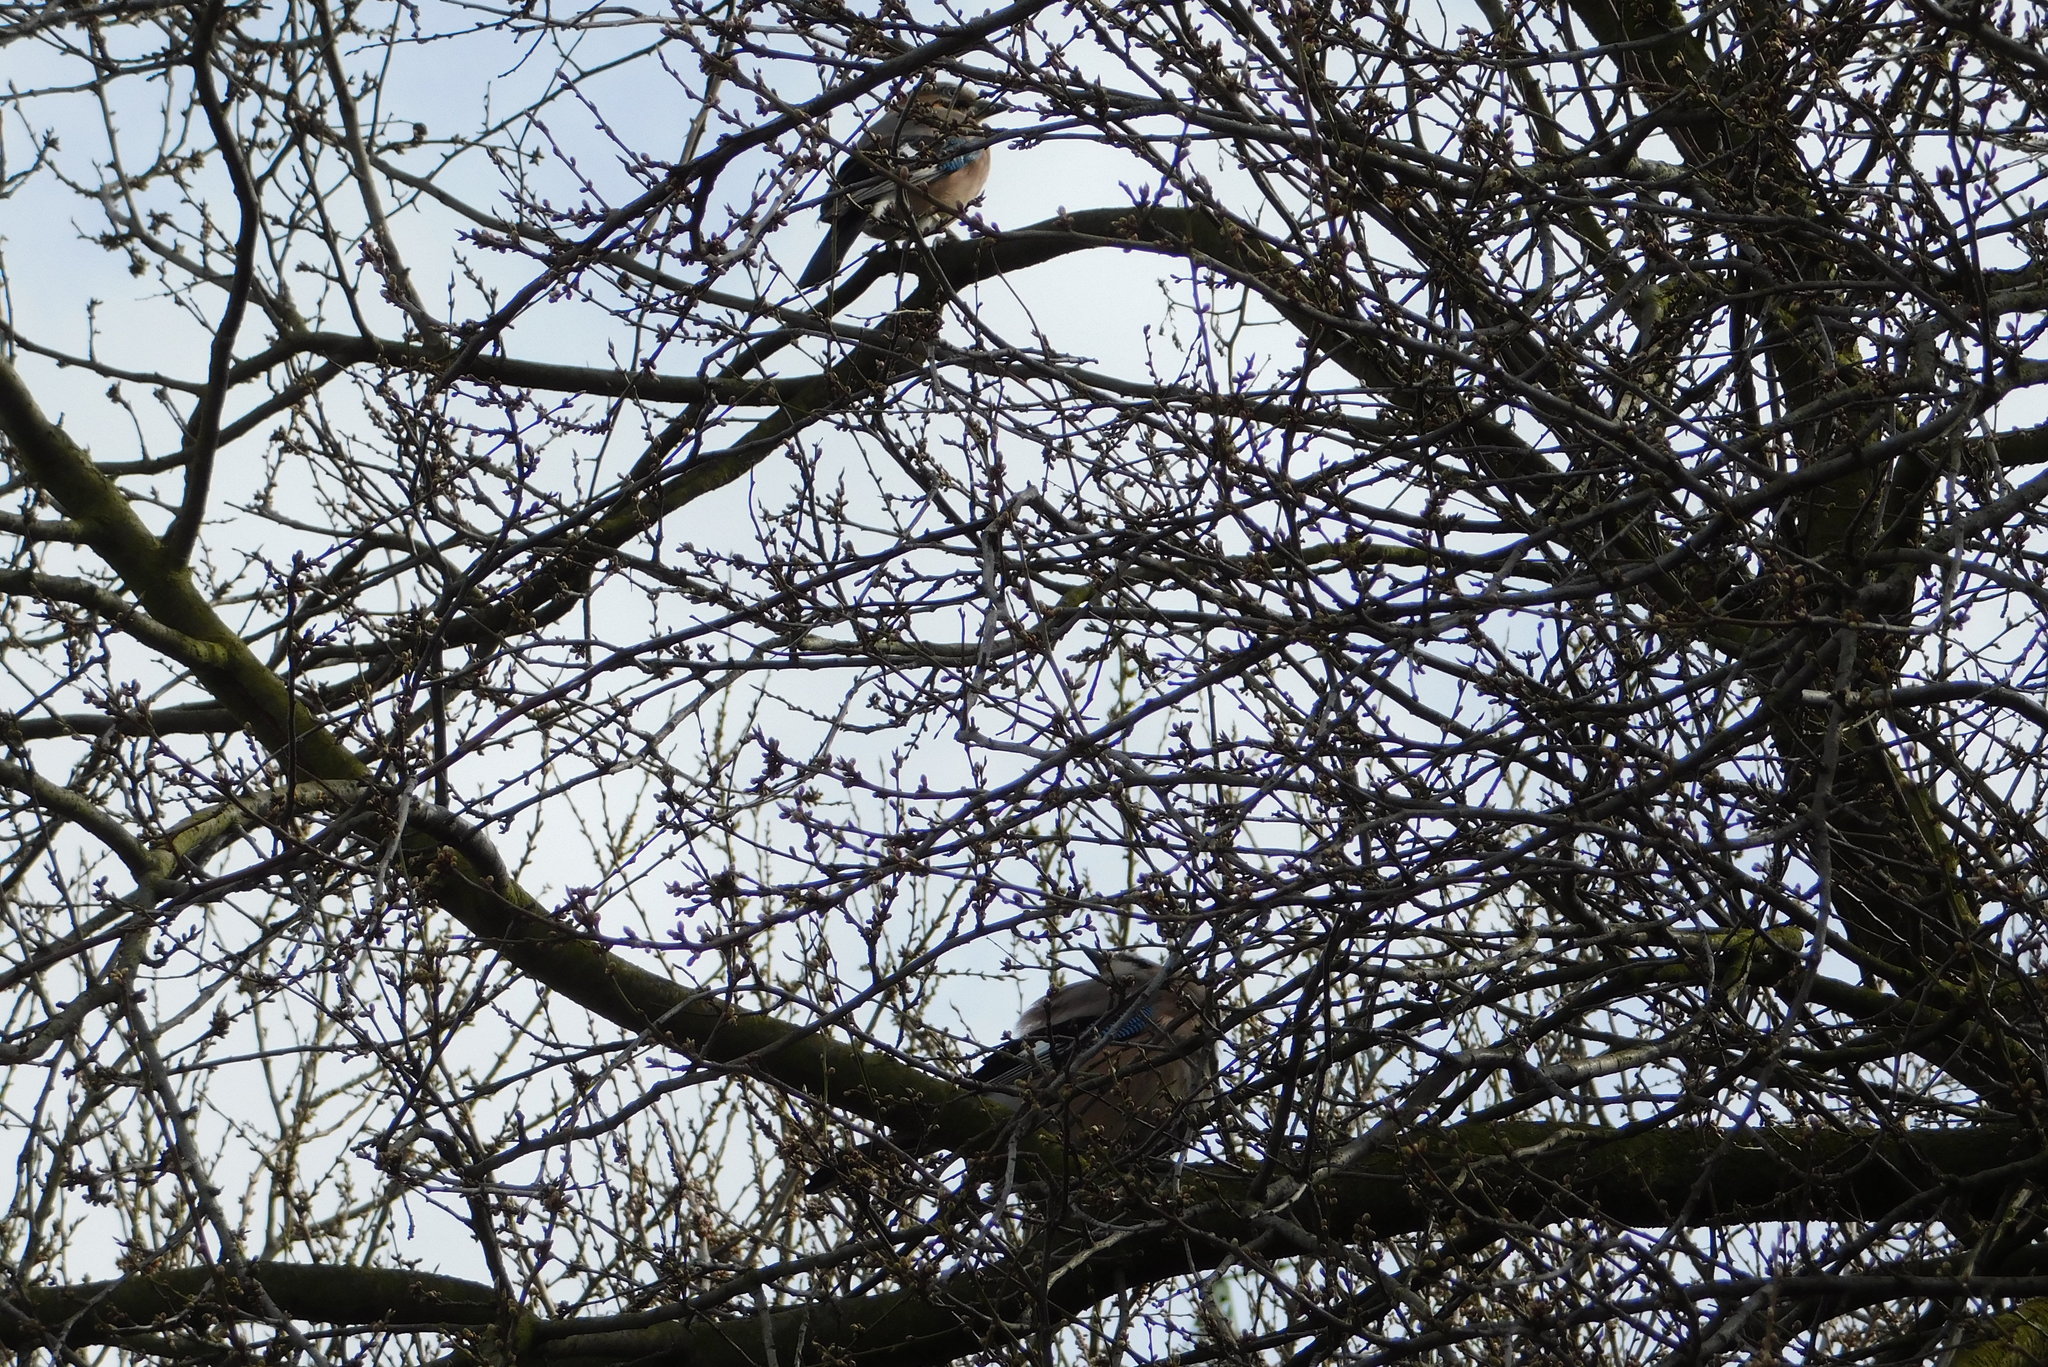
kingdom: Animalia
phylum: Chordata
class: Aves
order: Passeriformes
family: Corvidae
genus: Garrulus
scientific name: Garrulus glandarius
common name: Eurasian jay
